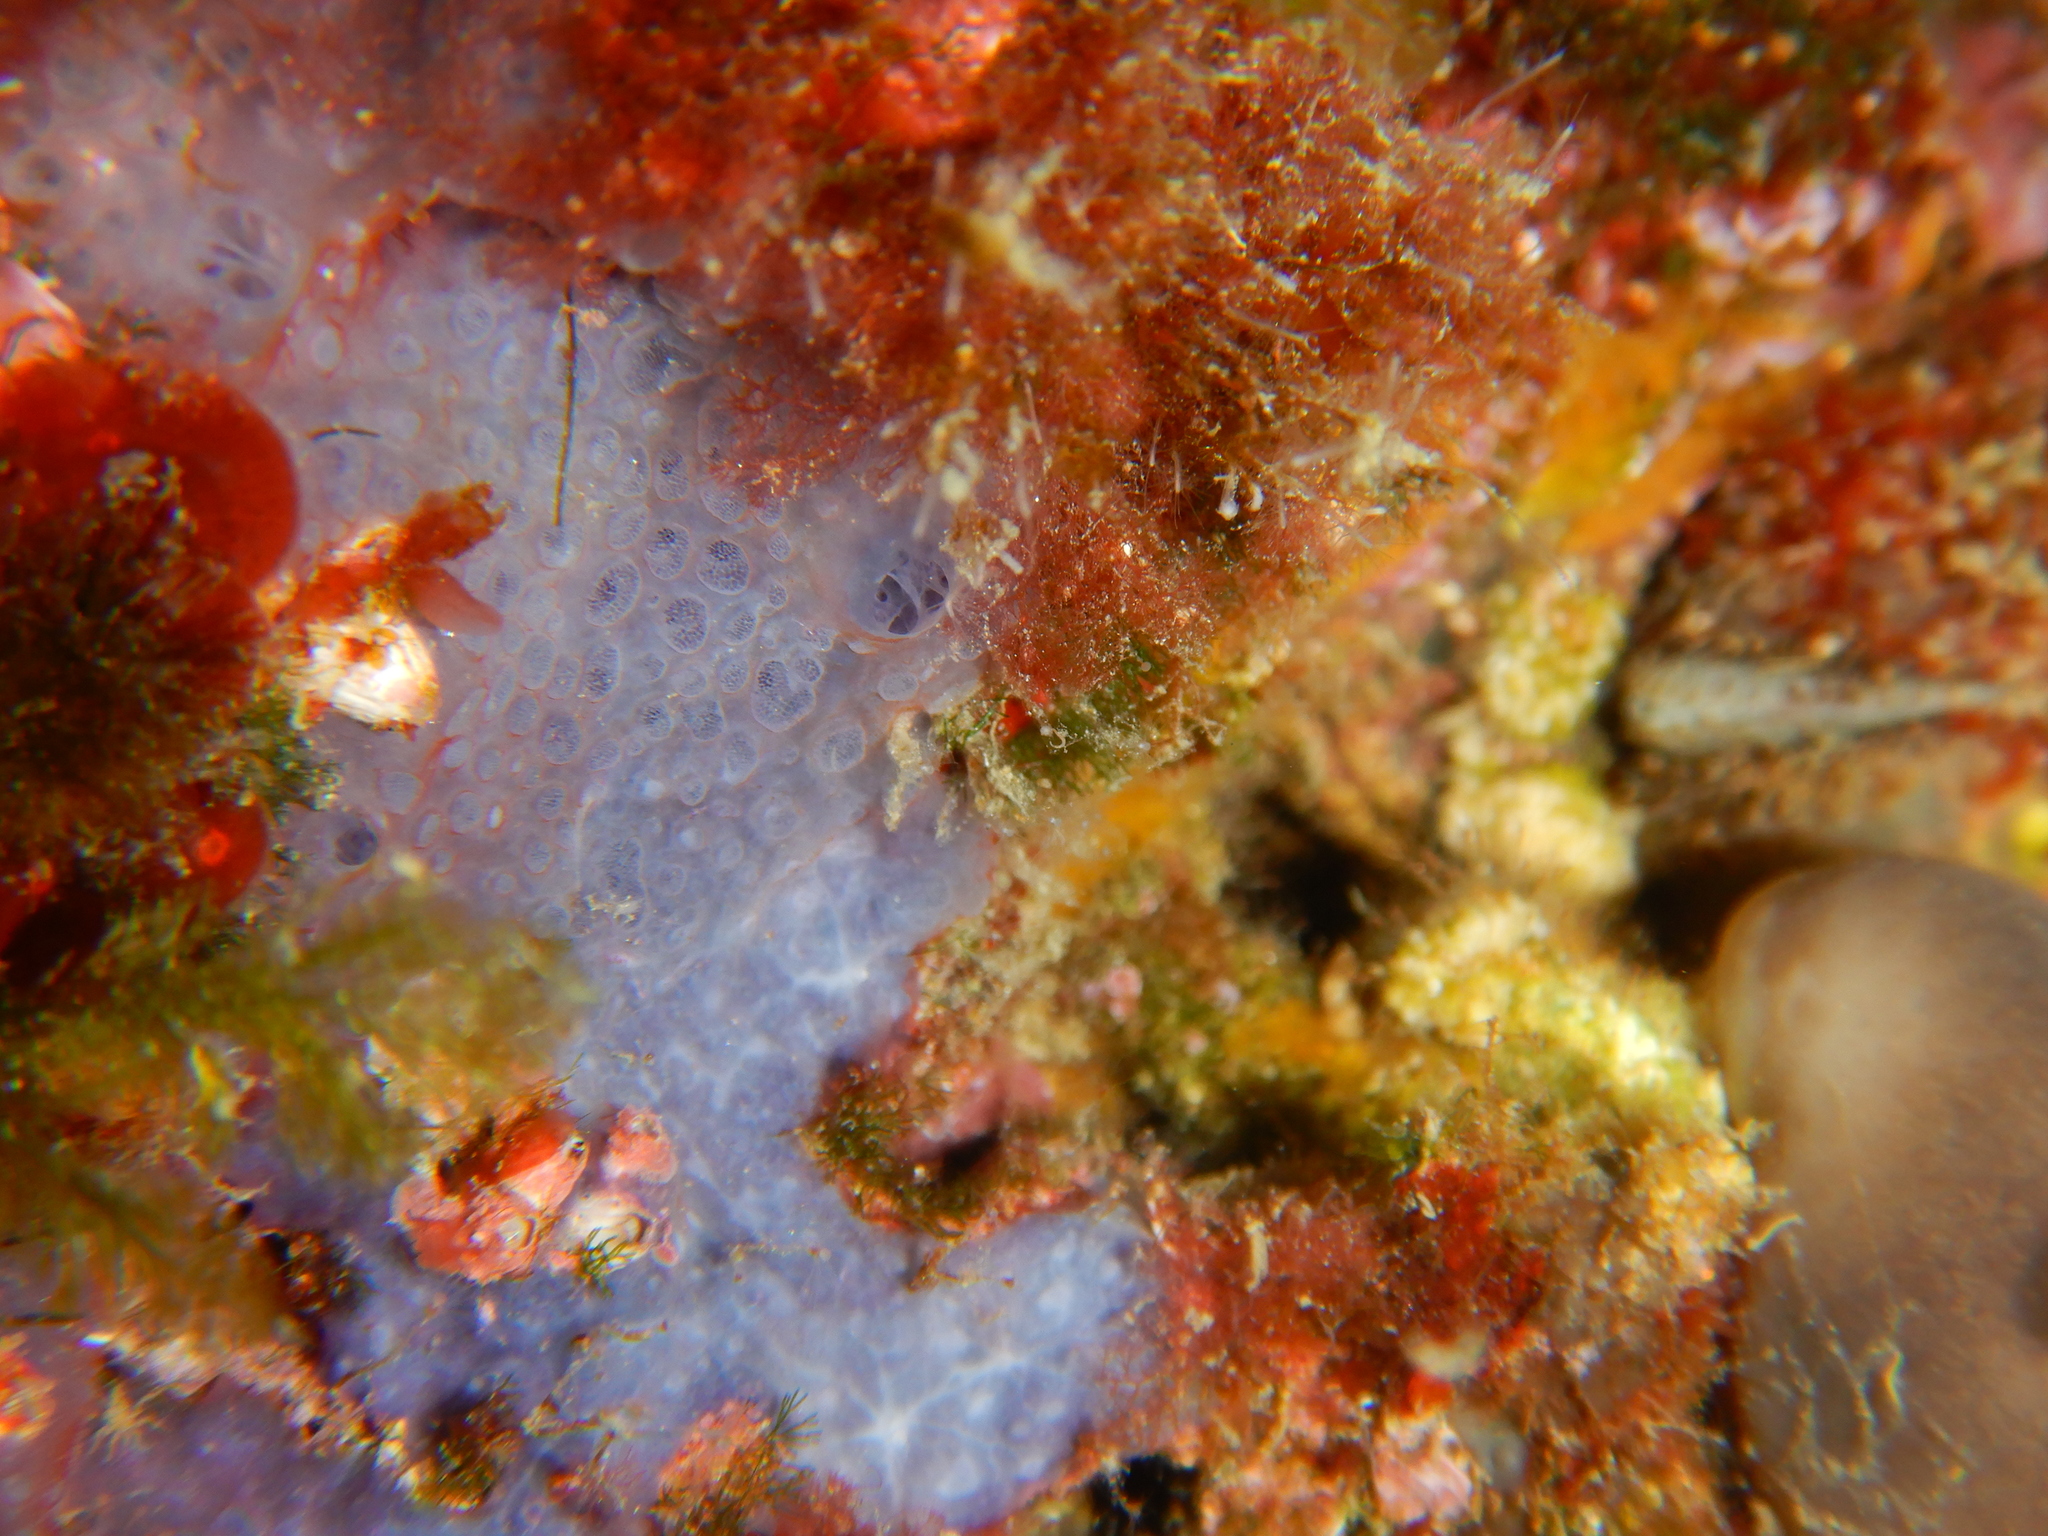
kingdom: Animalia
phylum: Porifera
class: Demospongiae
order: Poecilosclerida
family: Hymedesmiidae
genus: Phorbas
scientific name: Phorbas tenacior
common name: Bluish encrusting sponge
